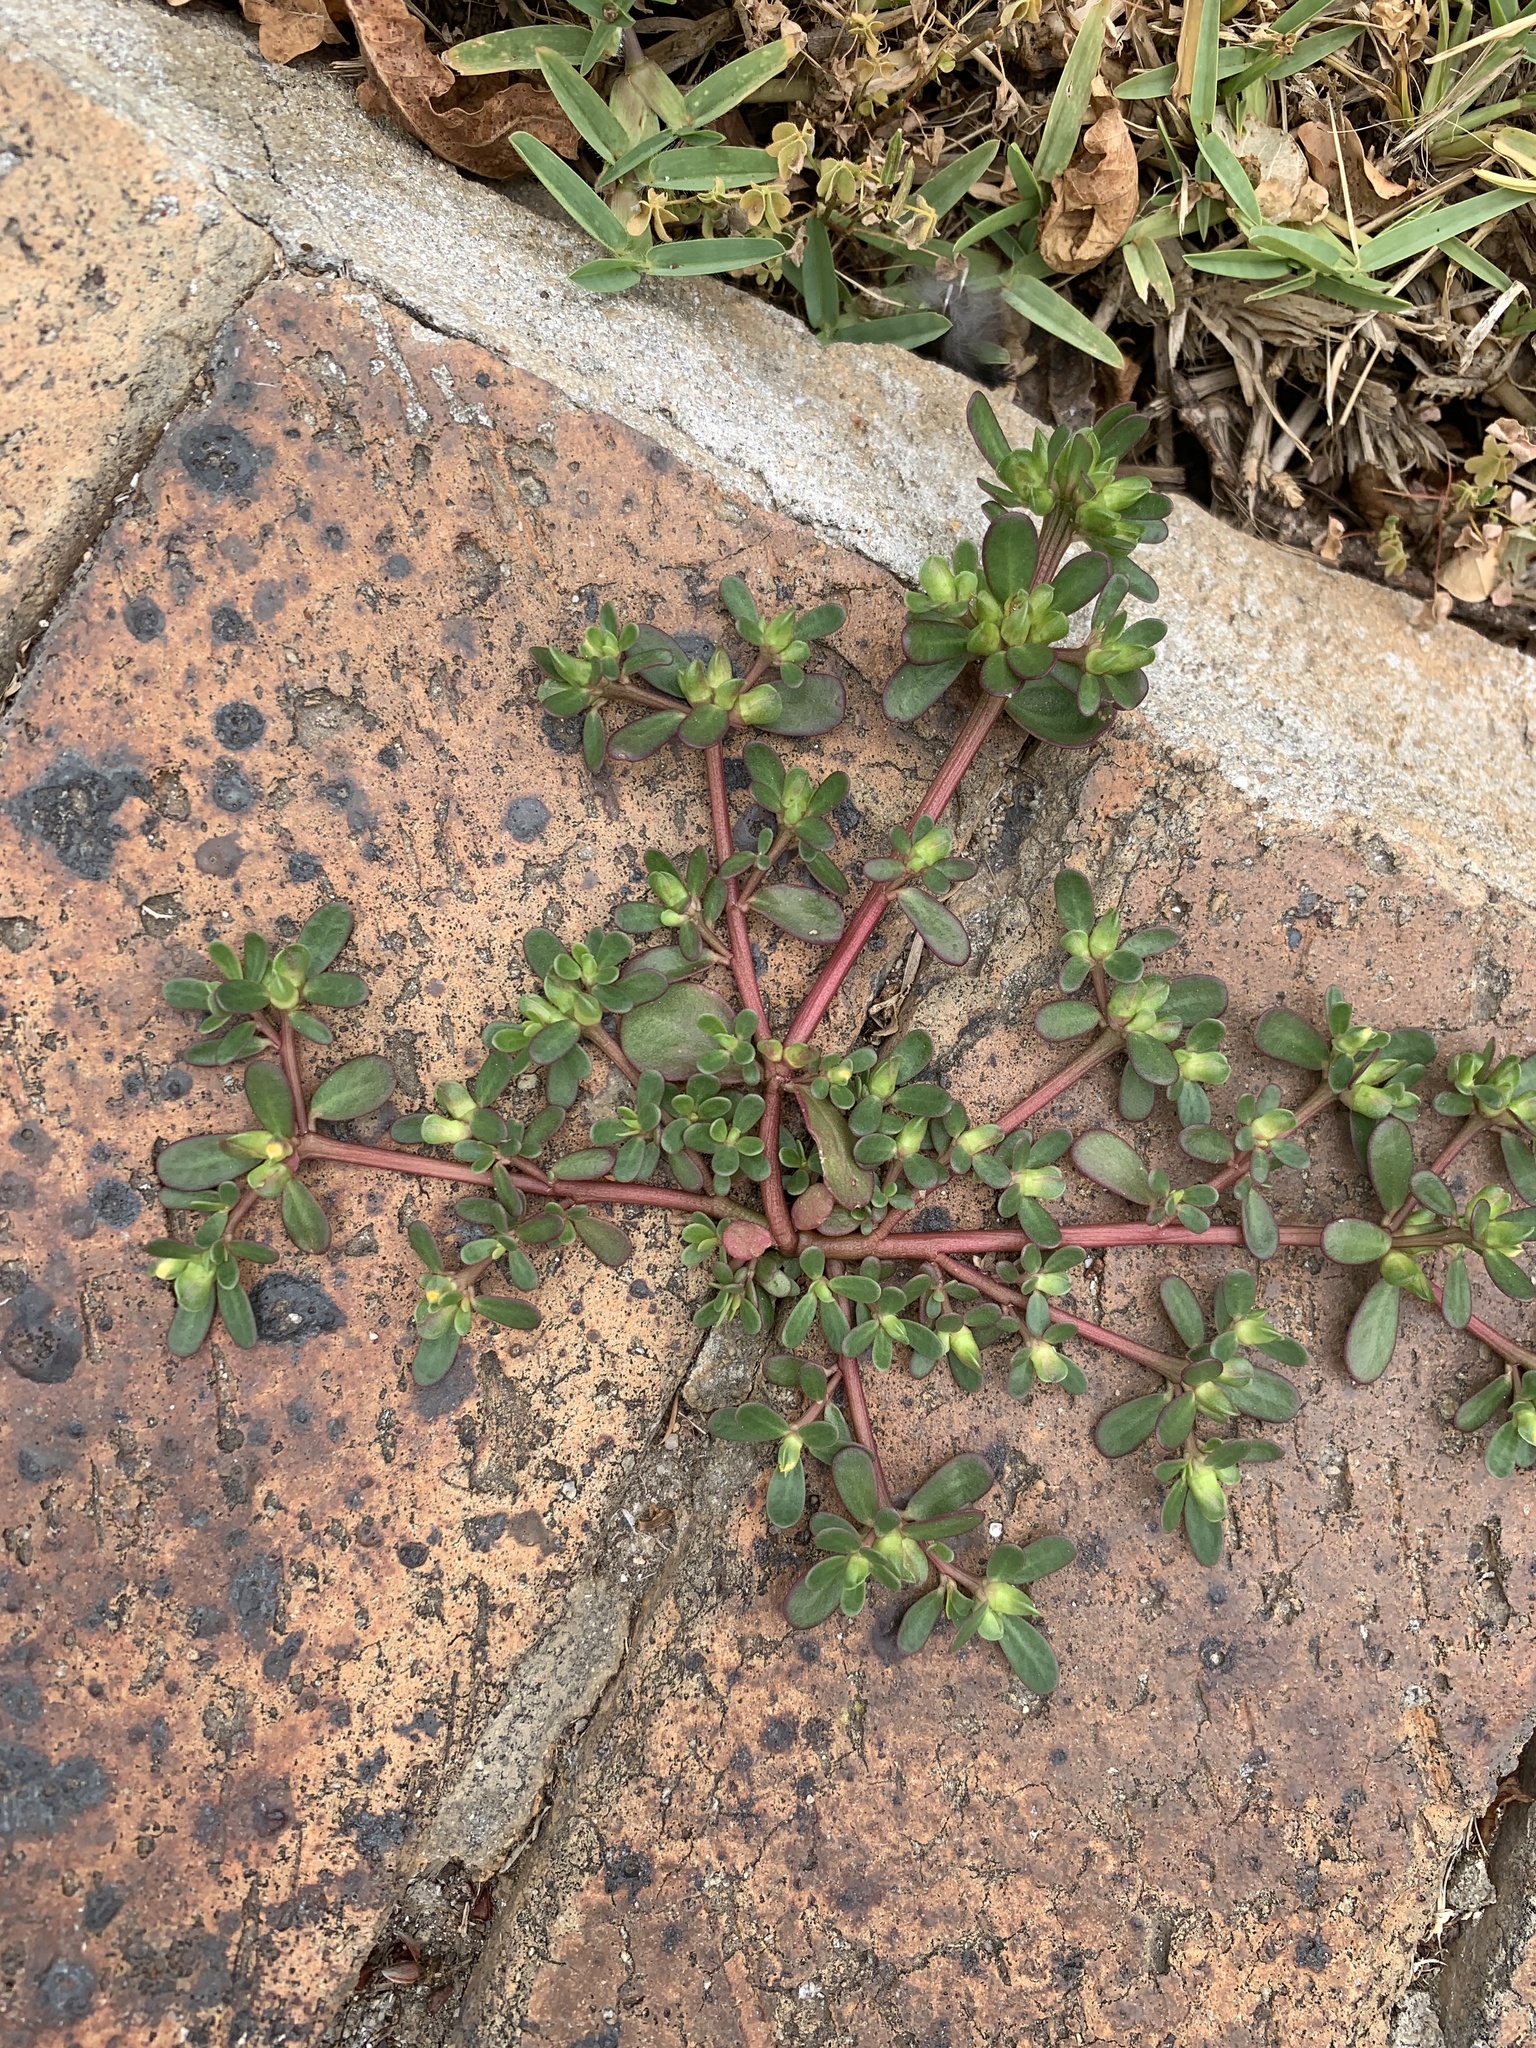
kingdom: Plantae
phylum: Tracheophyta
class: Magnoliopsida
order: Caryophyllales
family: Portulacaceae
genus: Portulaca
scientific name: Portulaca oleracea
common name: Common purslane
